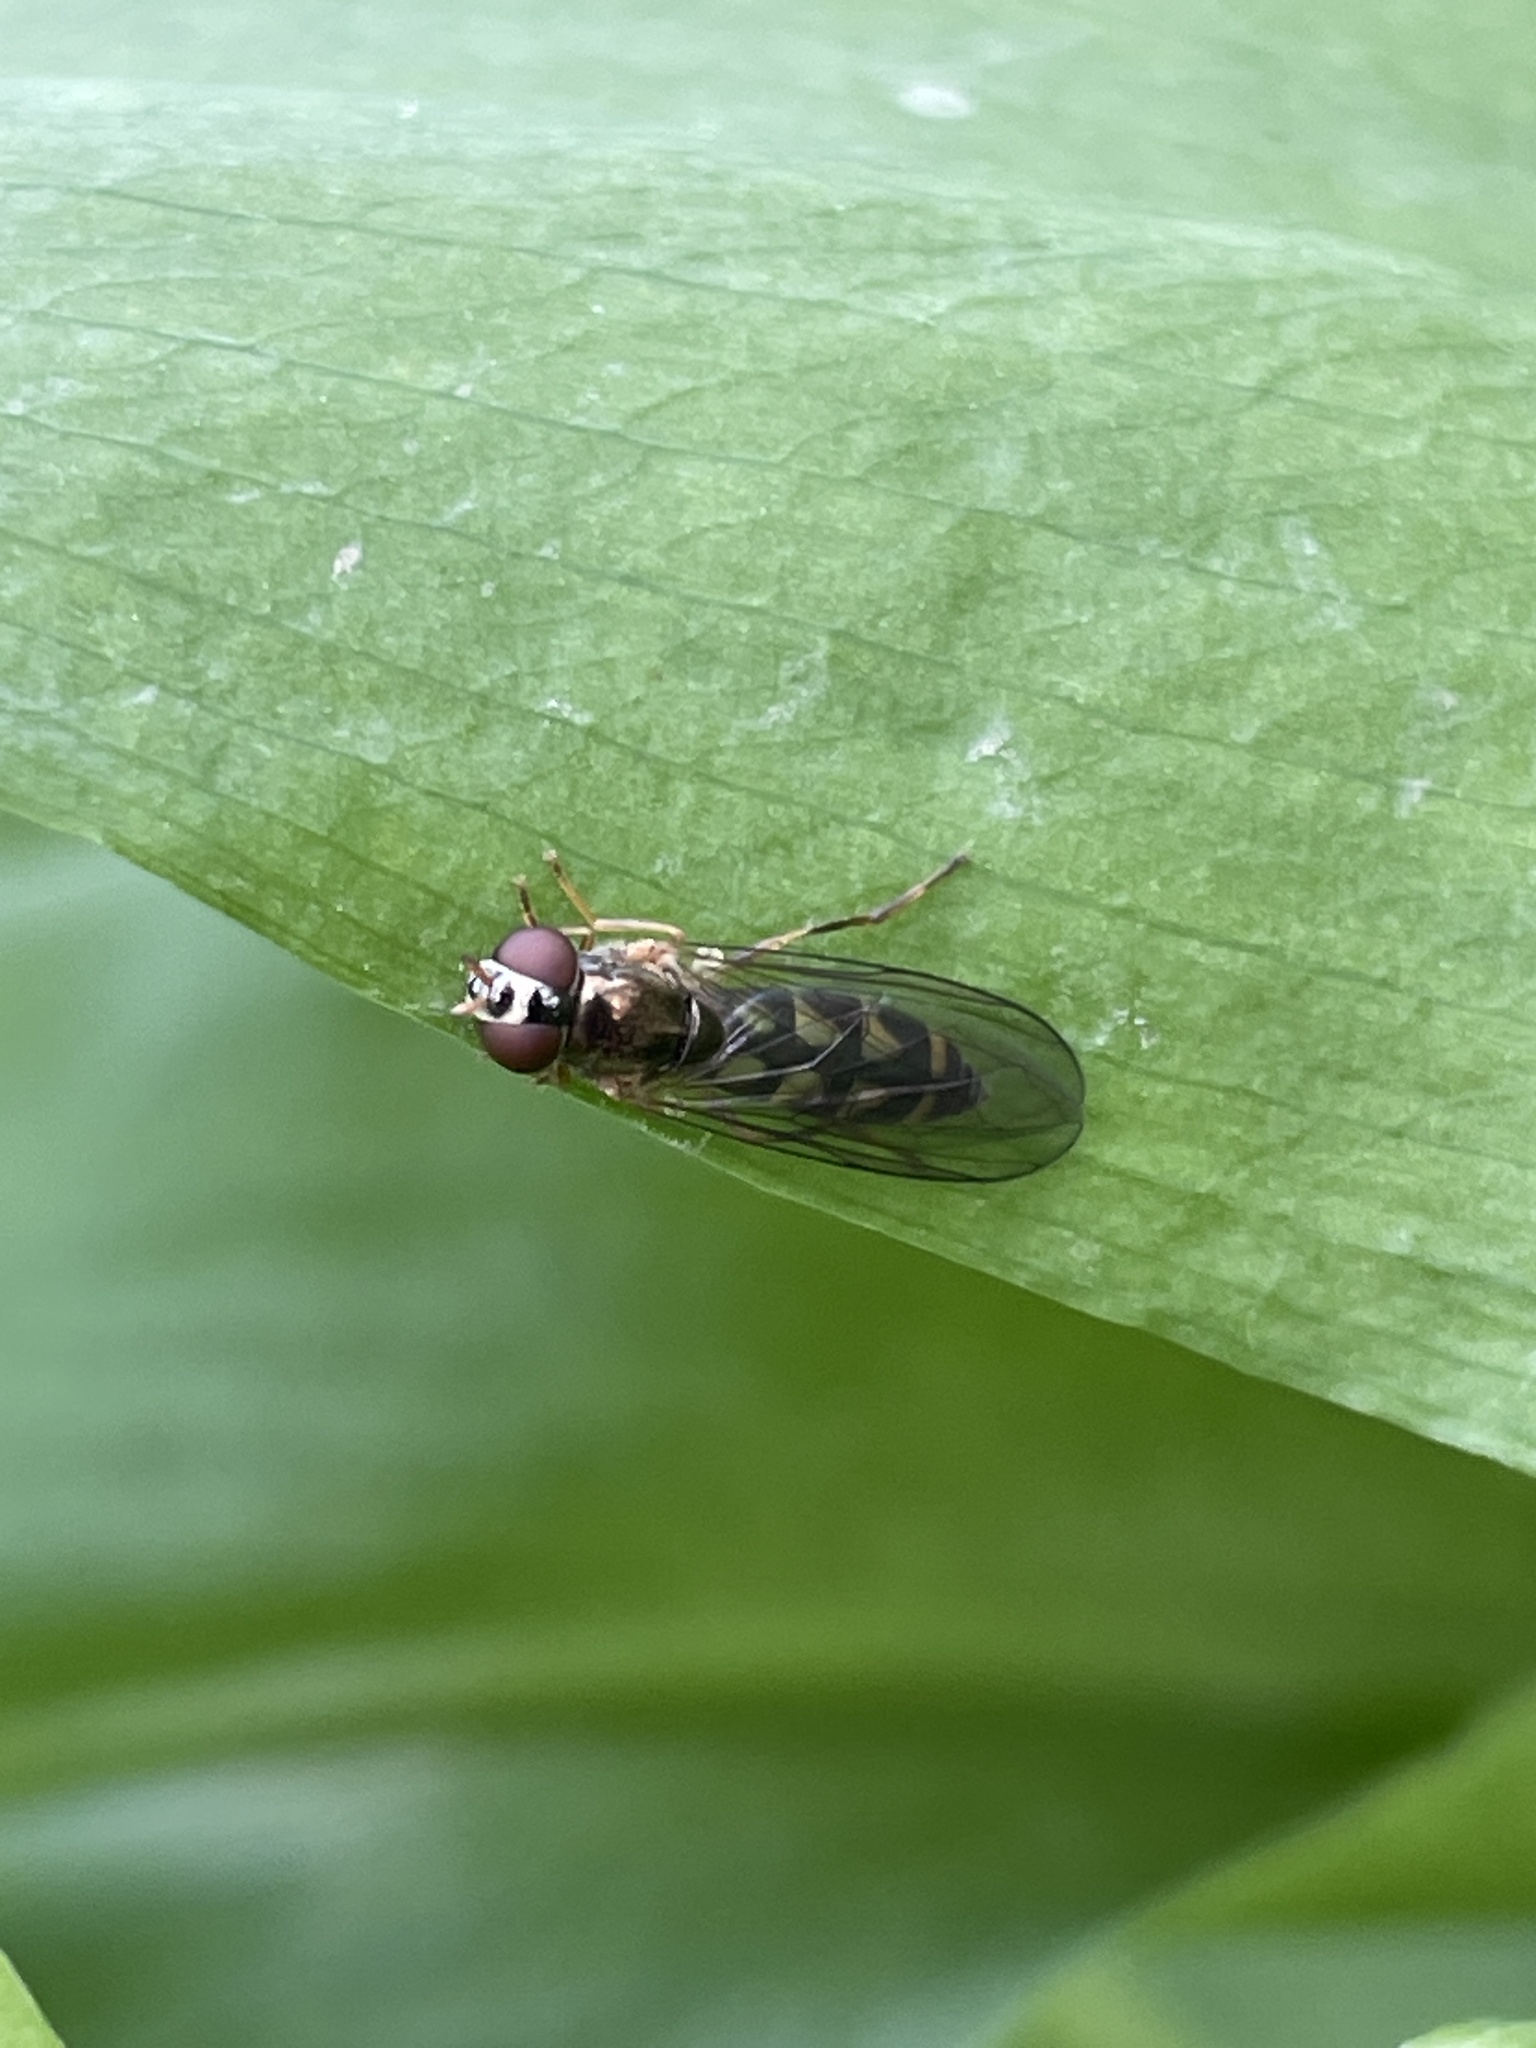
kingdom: Animalia
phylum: Arthropoda
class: Insecta
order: Diptera
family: Syrphidae
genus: Melanostoma
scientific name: Melanostoma
